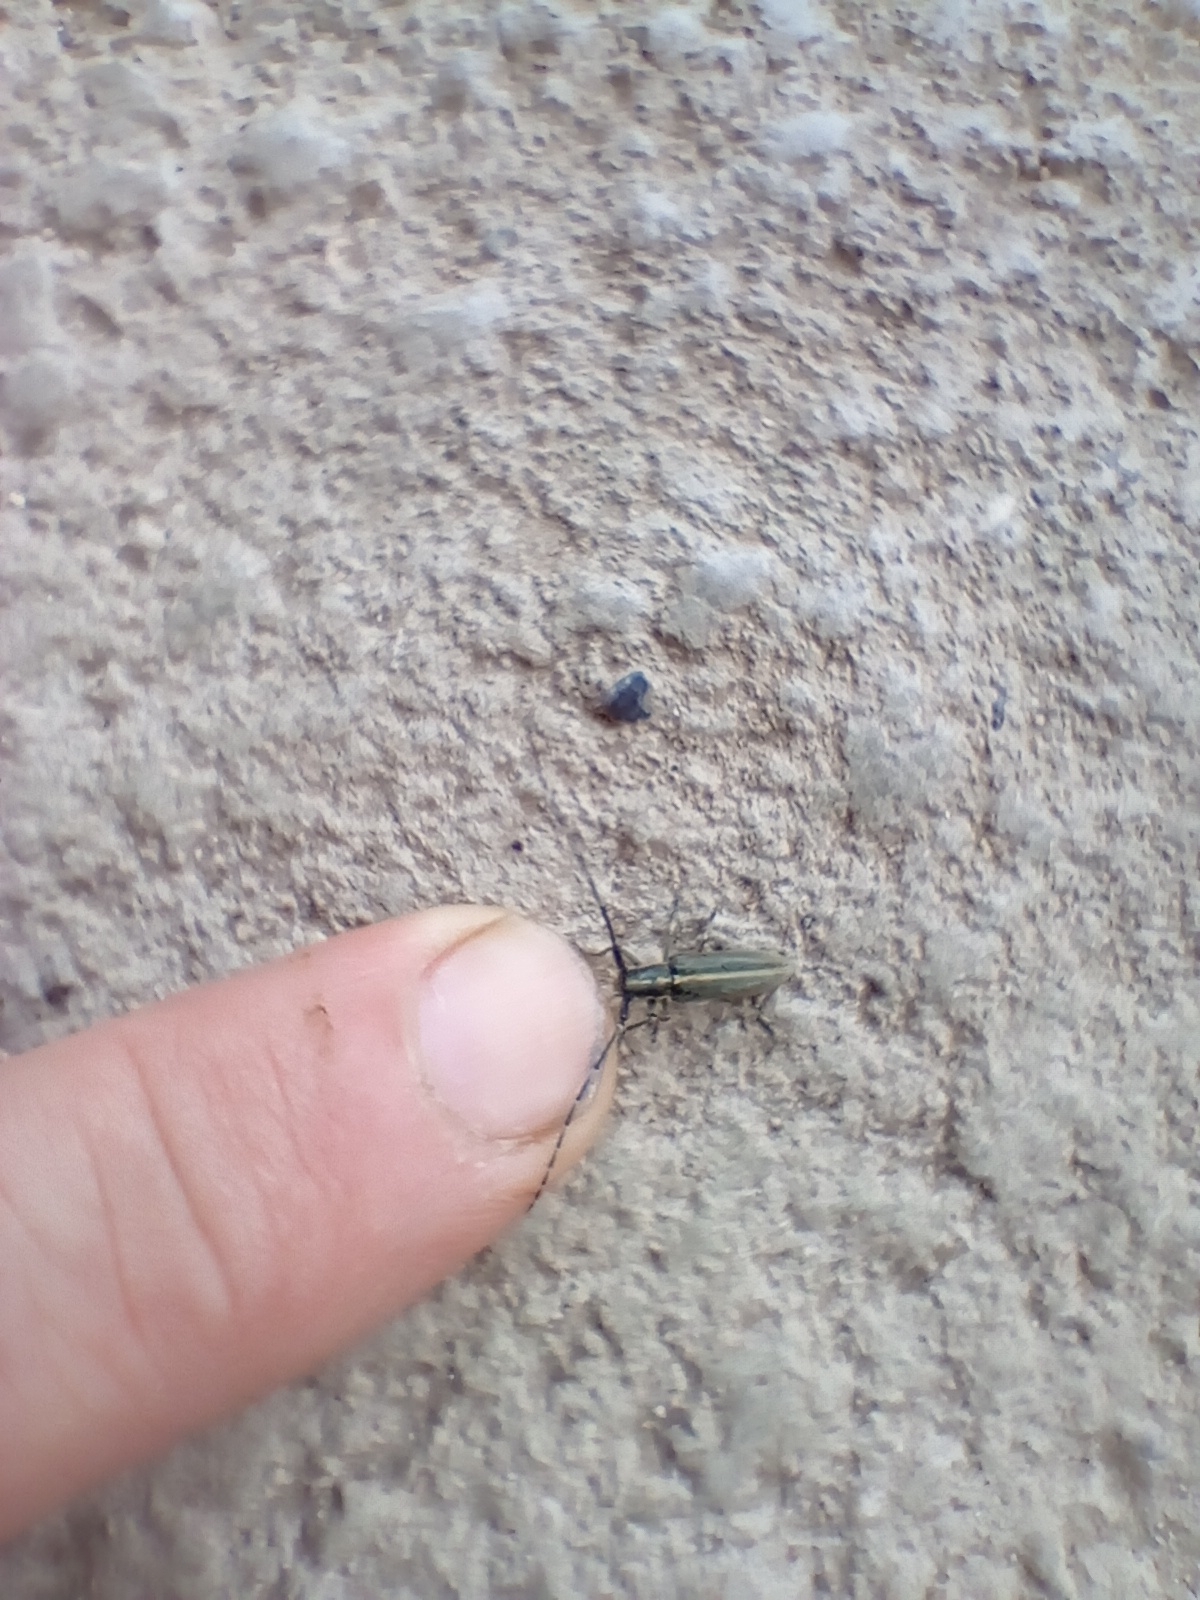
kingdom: Animalia
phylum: Arthropoda
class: Insecta
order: Coleoptera
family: Cerambycidae
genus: Agapanthia
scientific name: Agapanthia cardui
